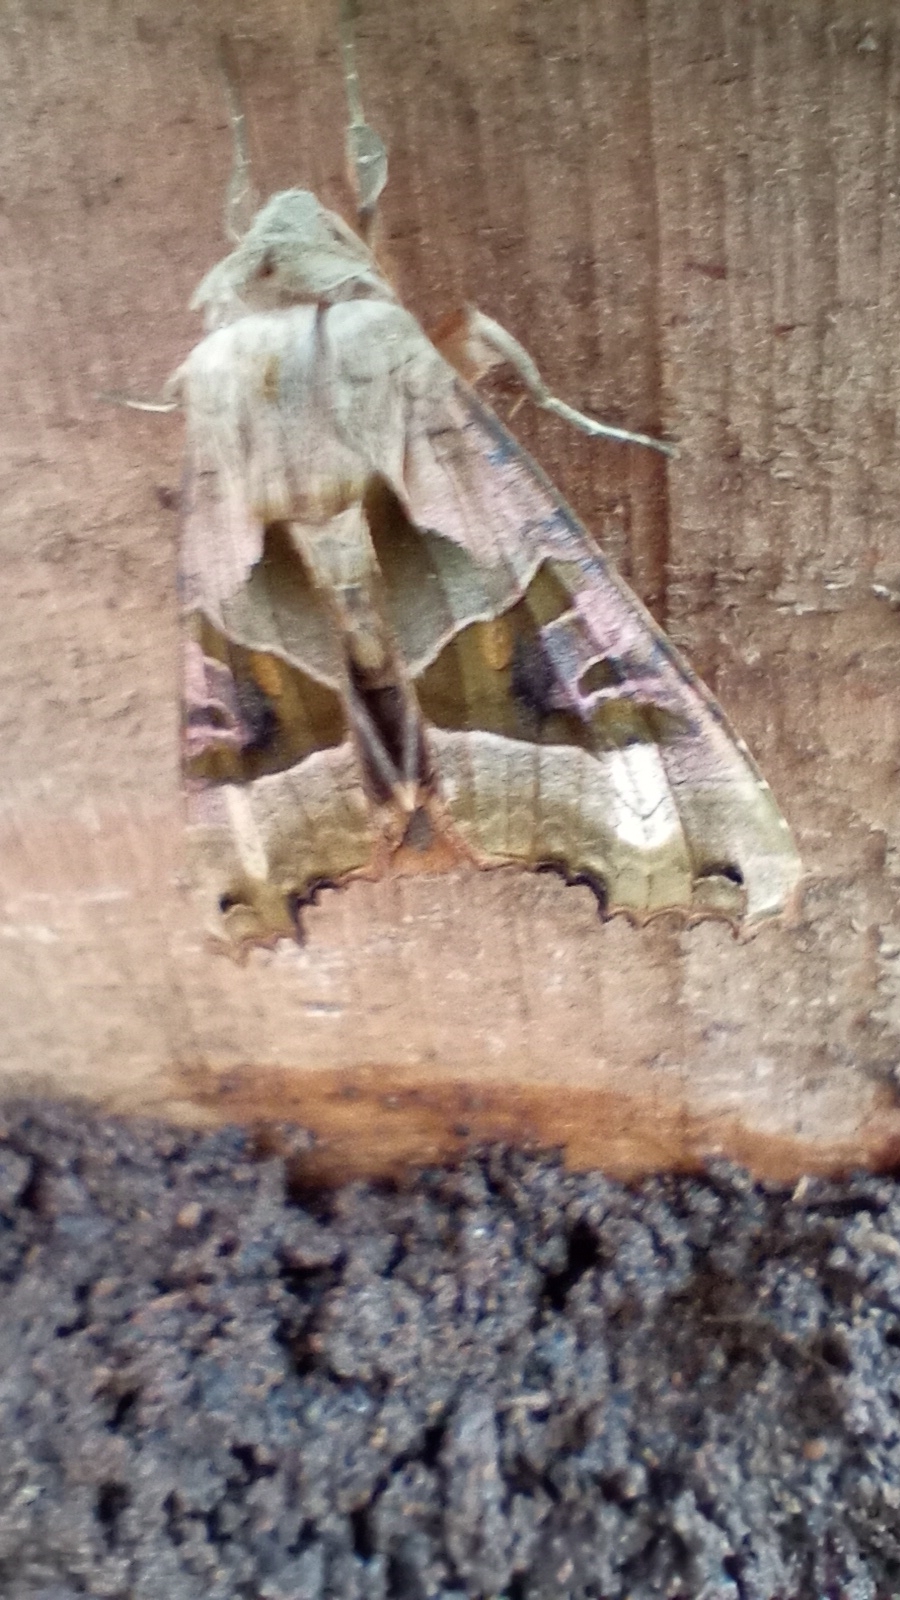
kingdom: Animalia
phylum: Arthropoda
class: Insecta
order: Lepidoptera
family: Noctuidae
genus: Phlogophora
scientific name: Phlogophora meticulosa
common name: Angle shades
